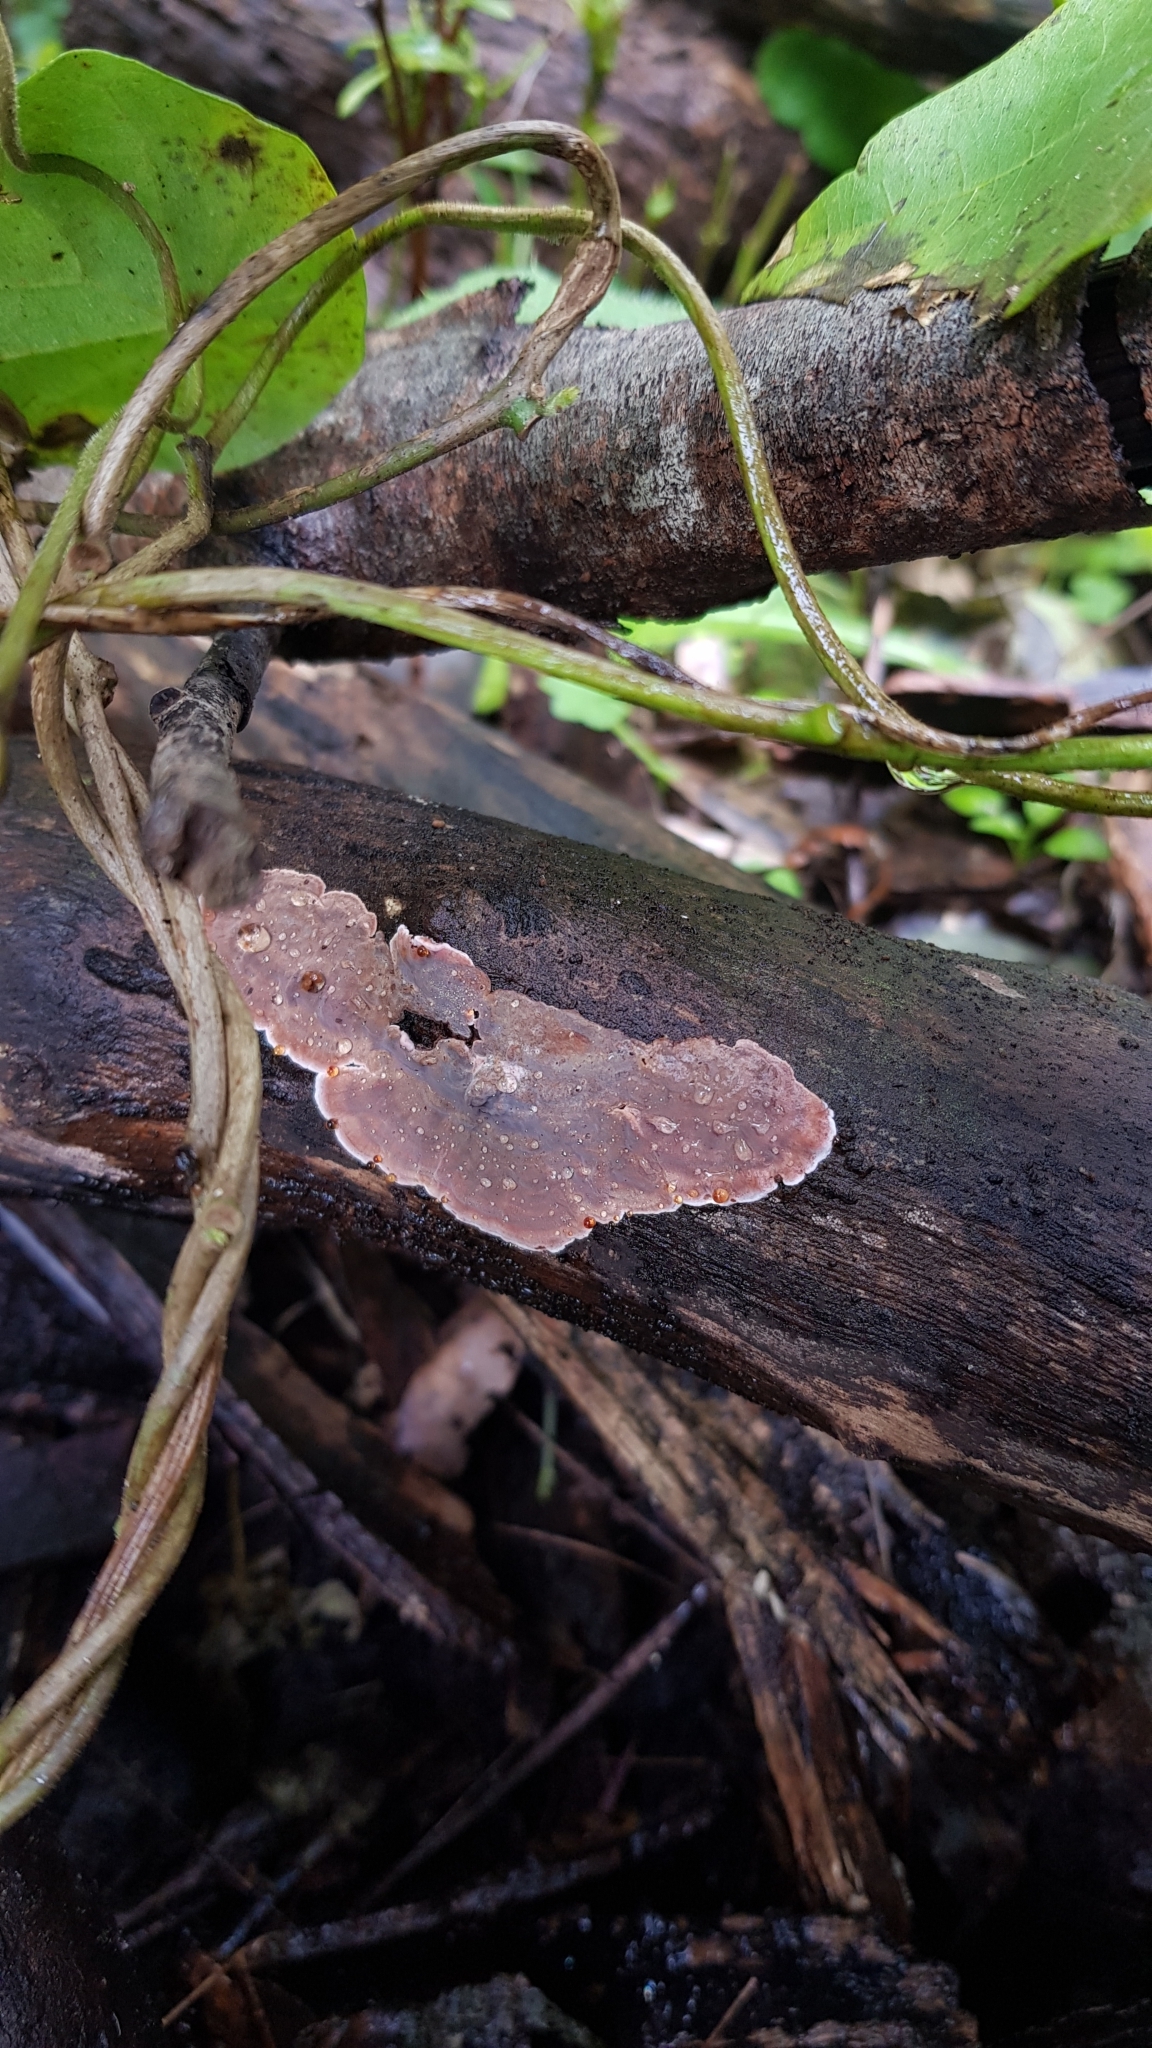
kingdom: Fungi
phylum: Basidiomycota
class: Agaricomycetes
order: Russulales
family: Stereaceae
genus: Xylobolus
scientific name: Xylobolus illudens
